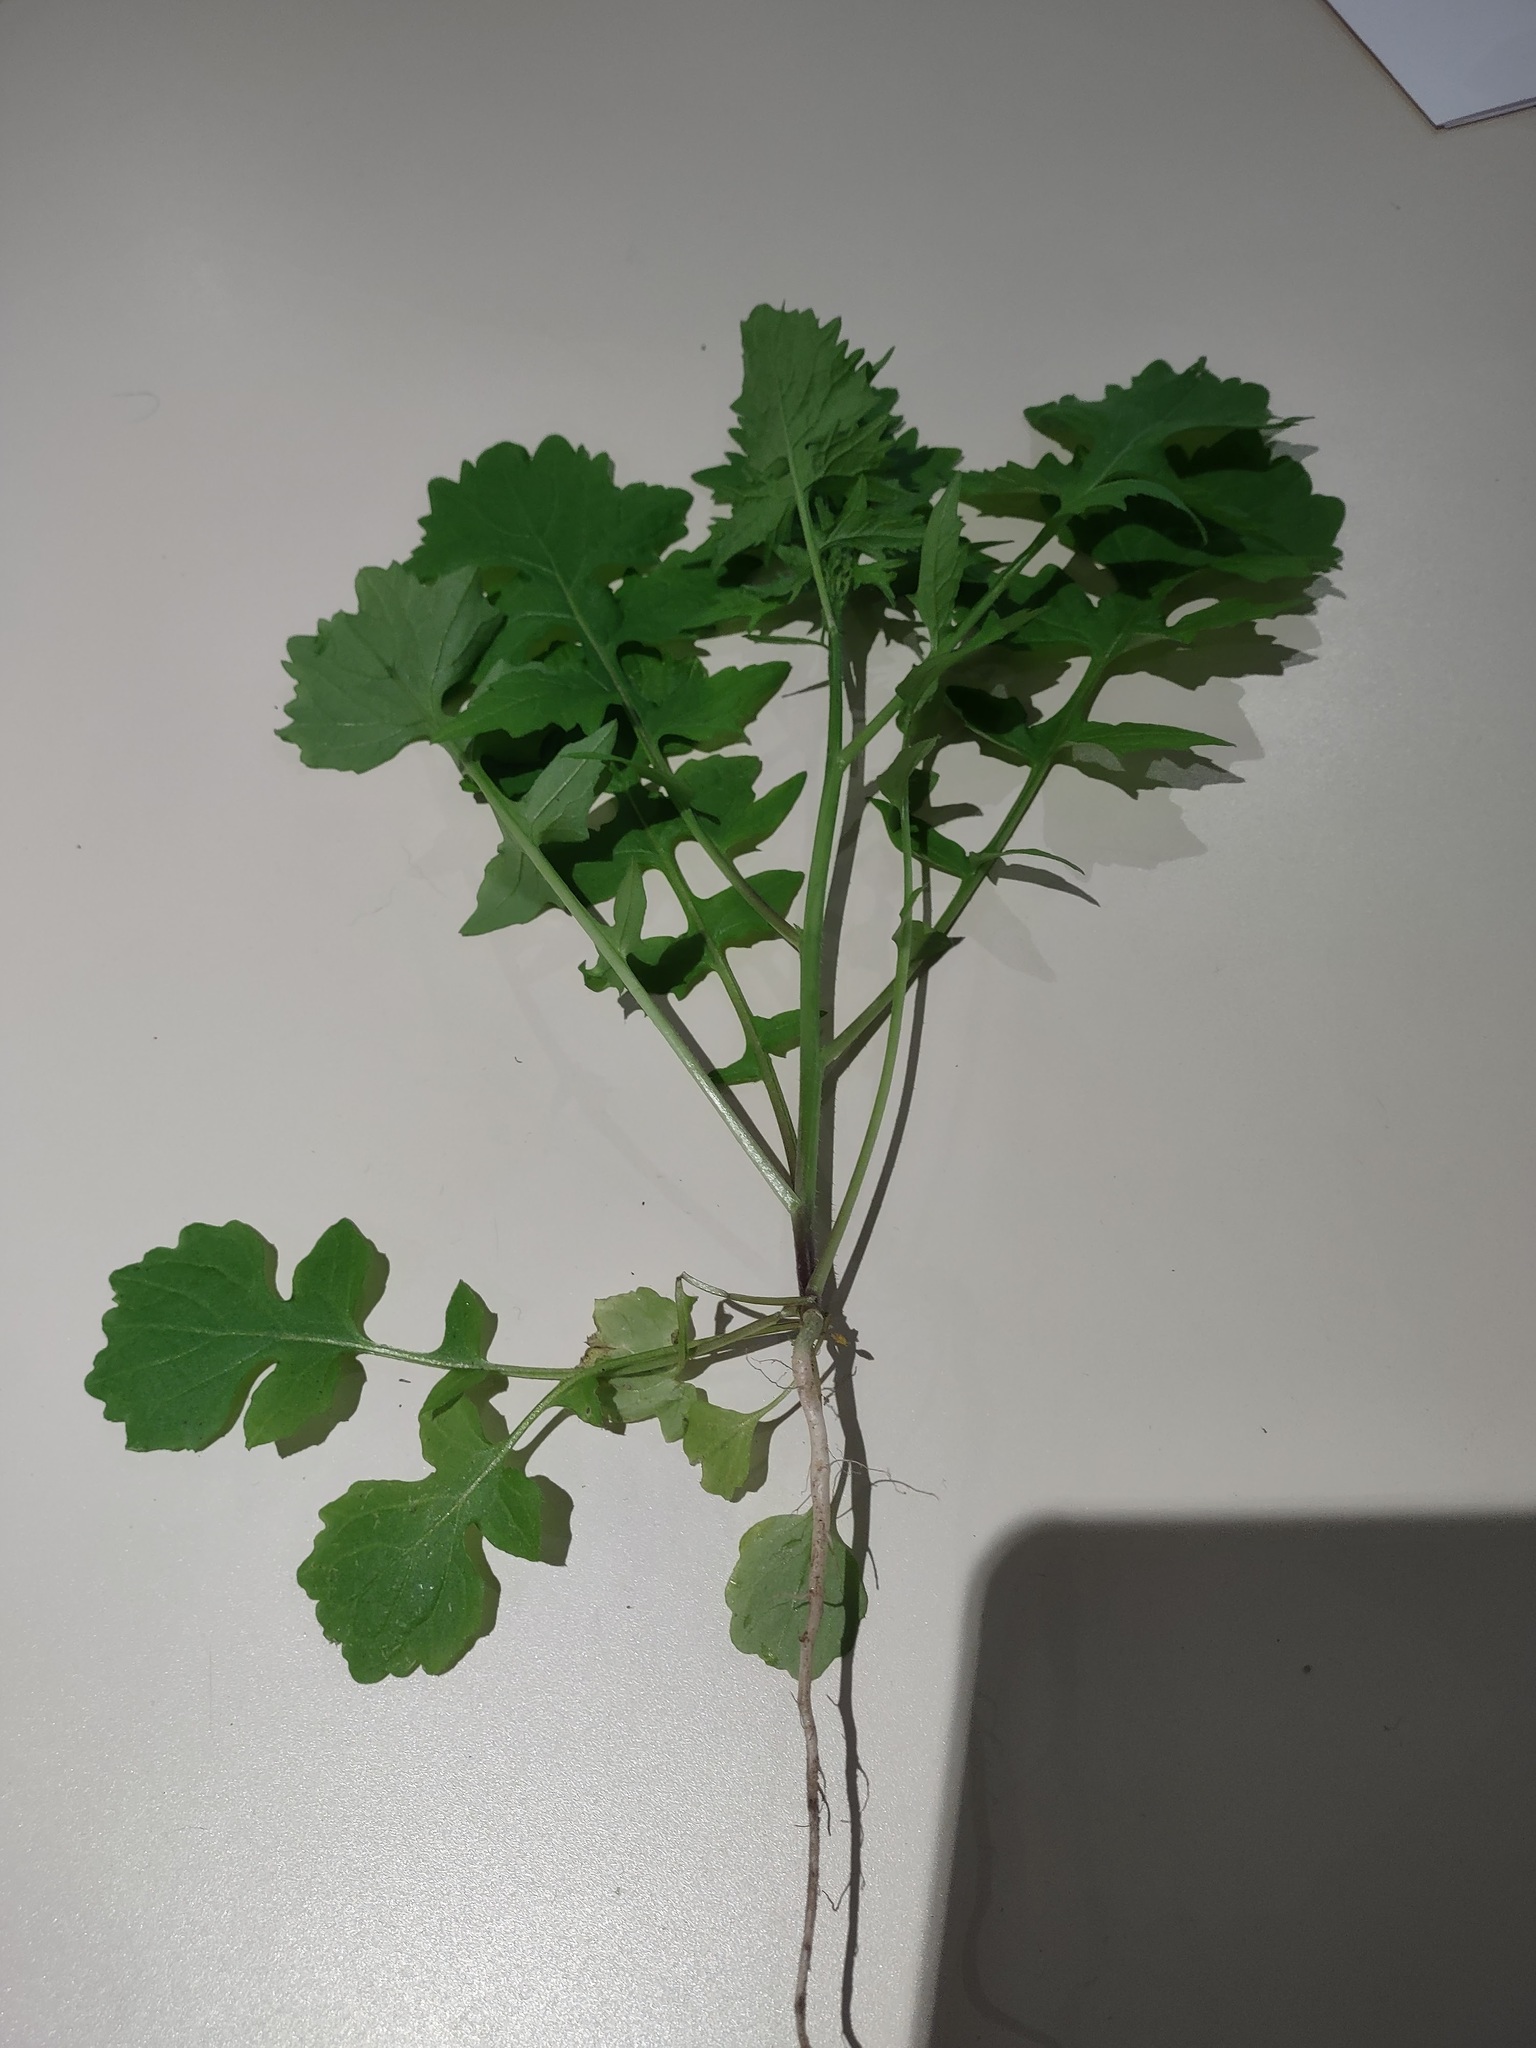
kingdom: Plantae
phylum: Tracheophyta
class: Magnoliopsida
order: Brassicales
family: Brassicaceae
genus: Sisymbrium
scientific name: Sisymbrium officinale
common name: Hedge mustard
